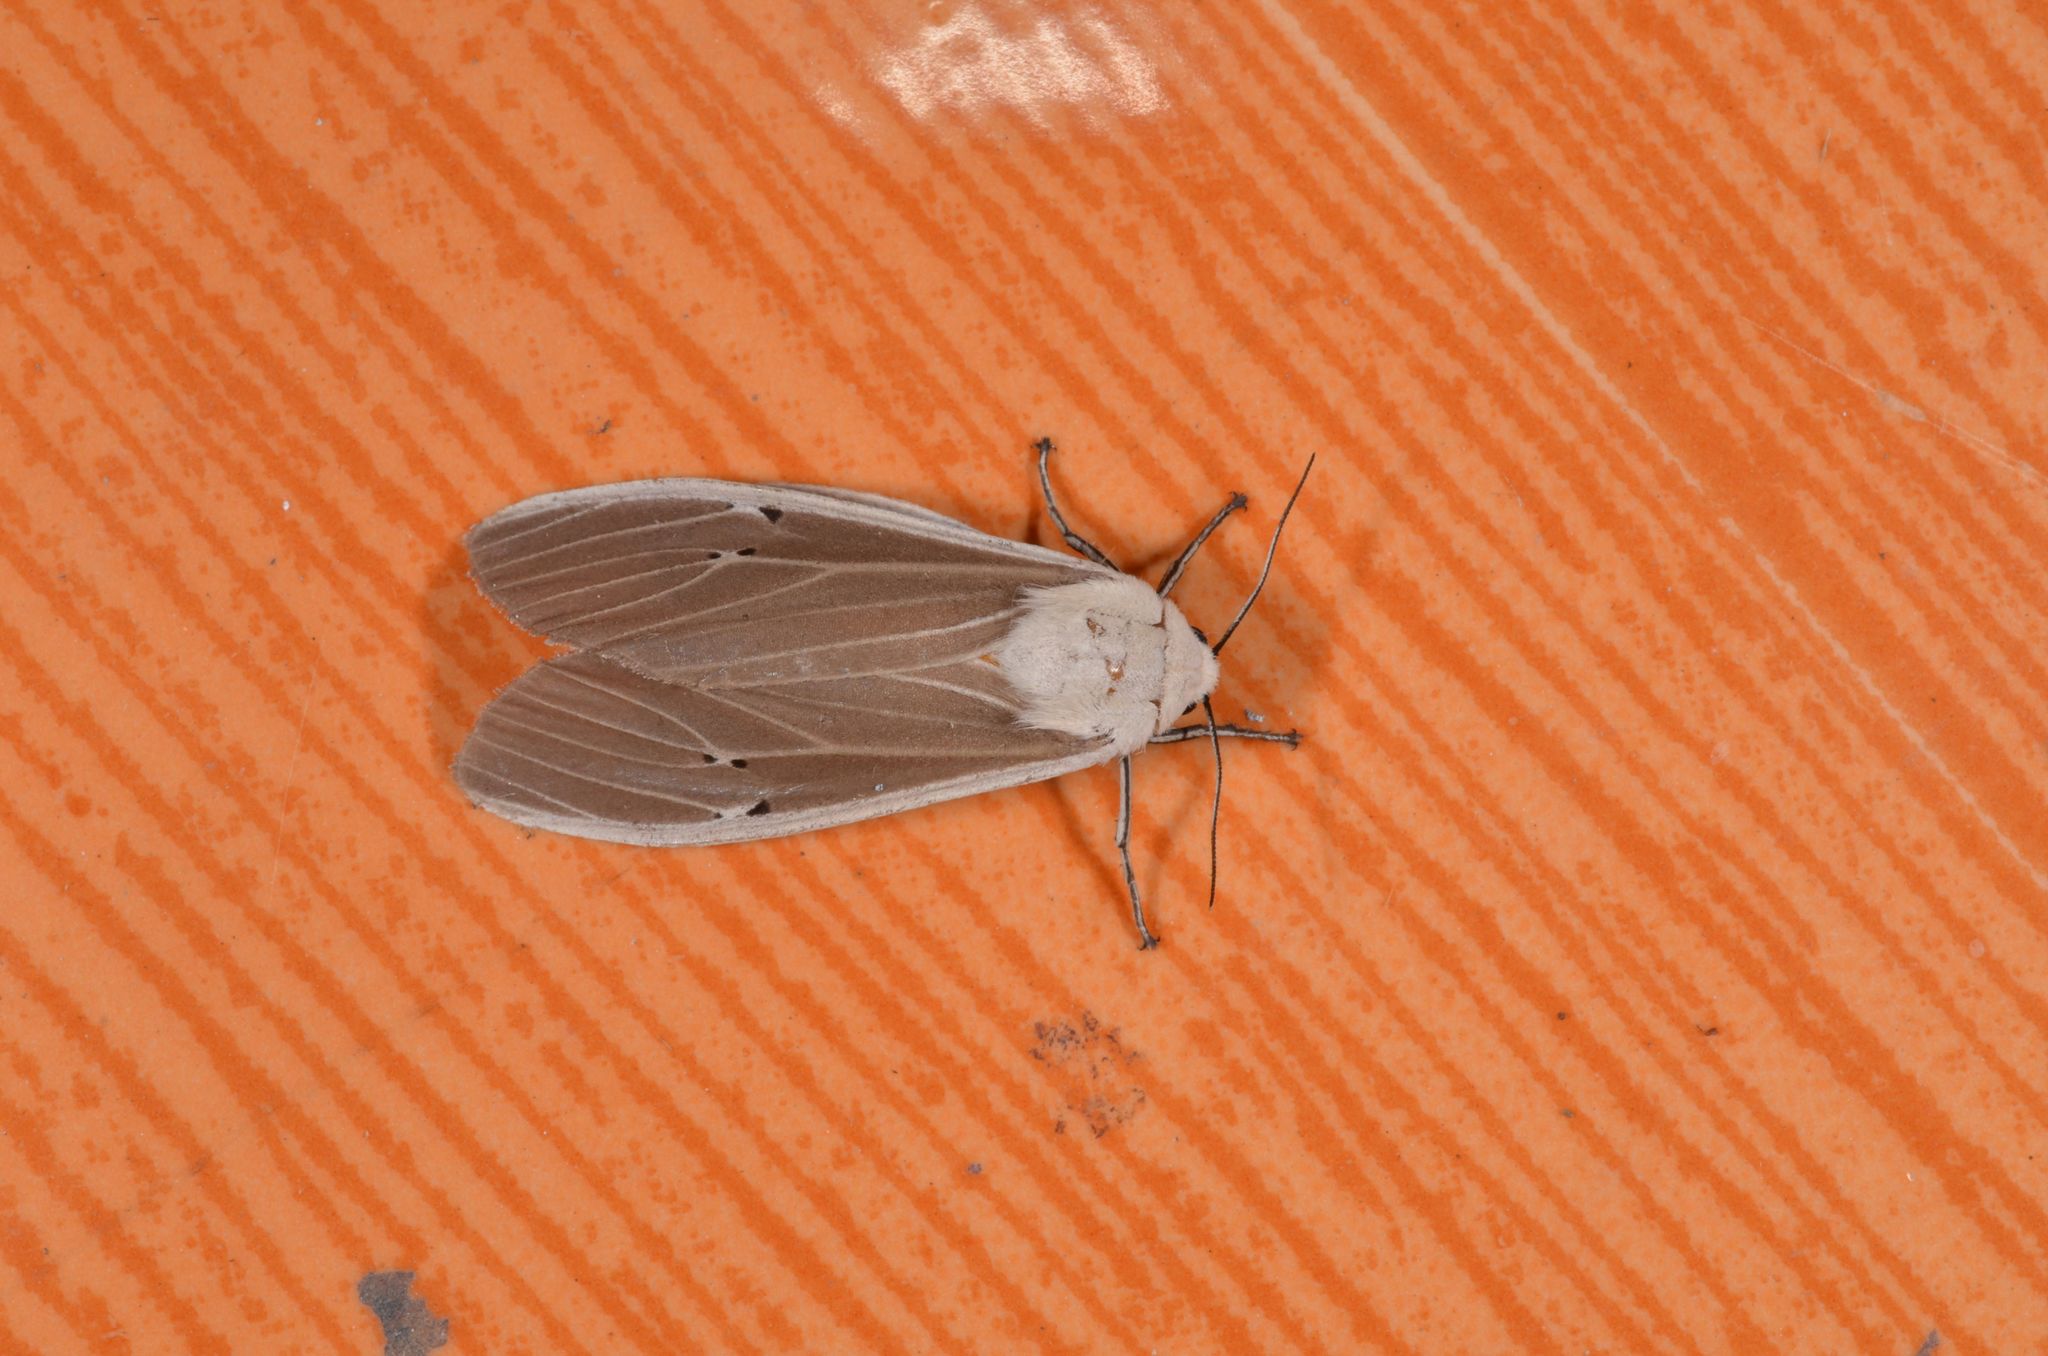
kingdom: Animalia
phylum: Arthropoda
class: Insecta
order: Lepidoptera
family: Erebidae
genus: Creatonotos
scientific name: Creatonotos transiens
